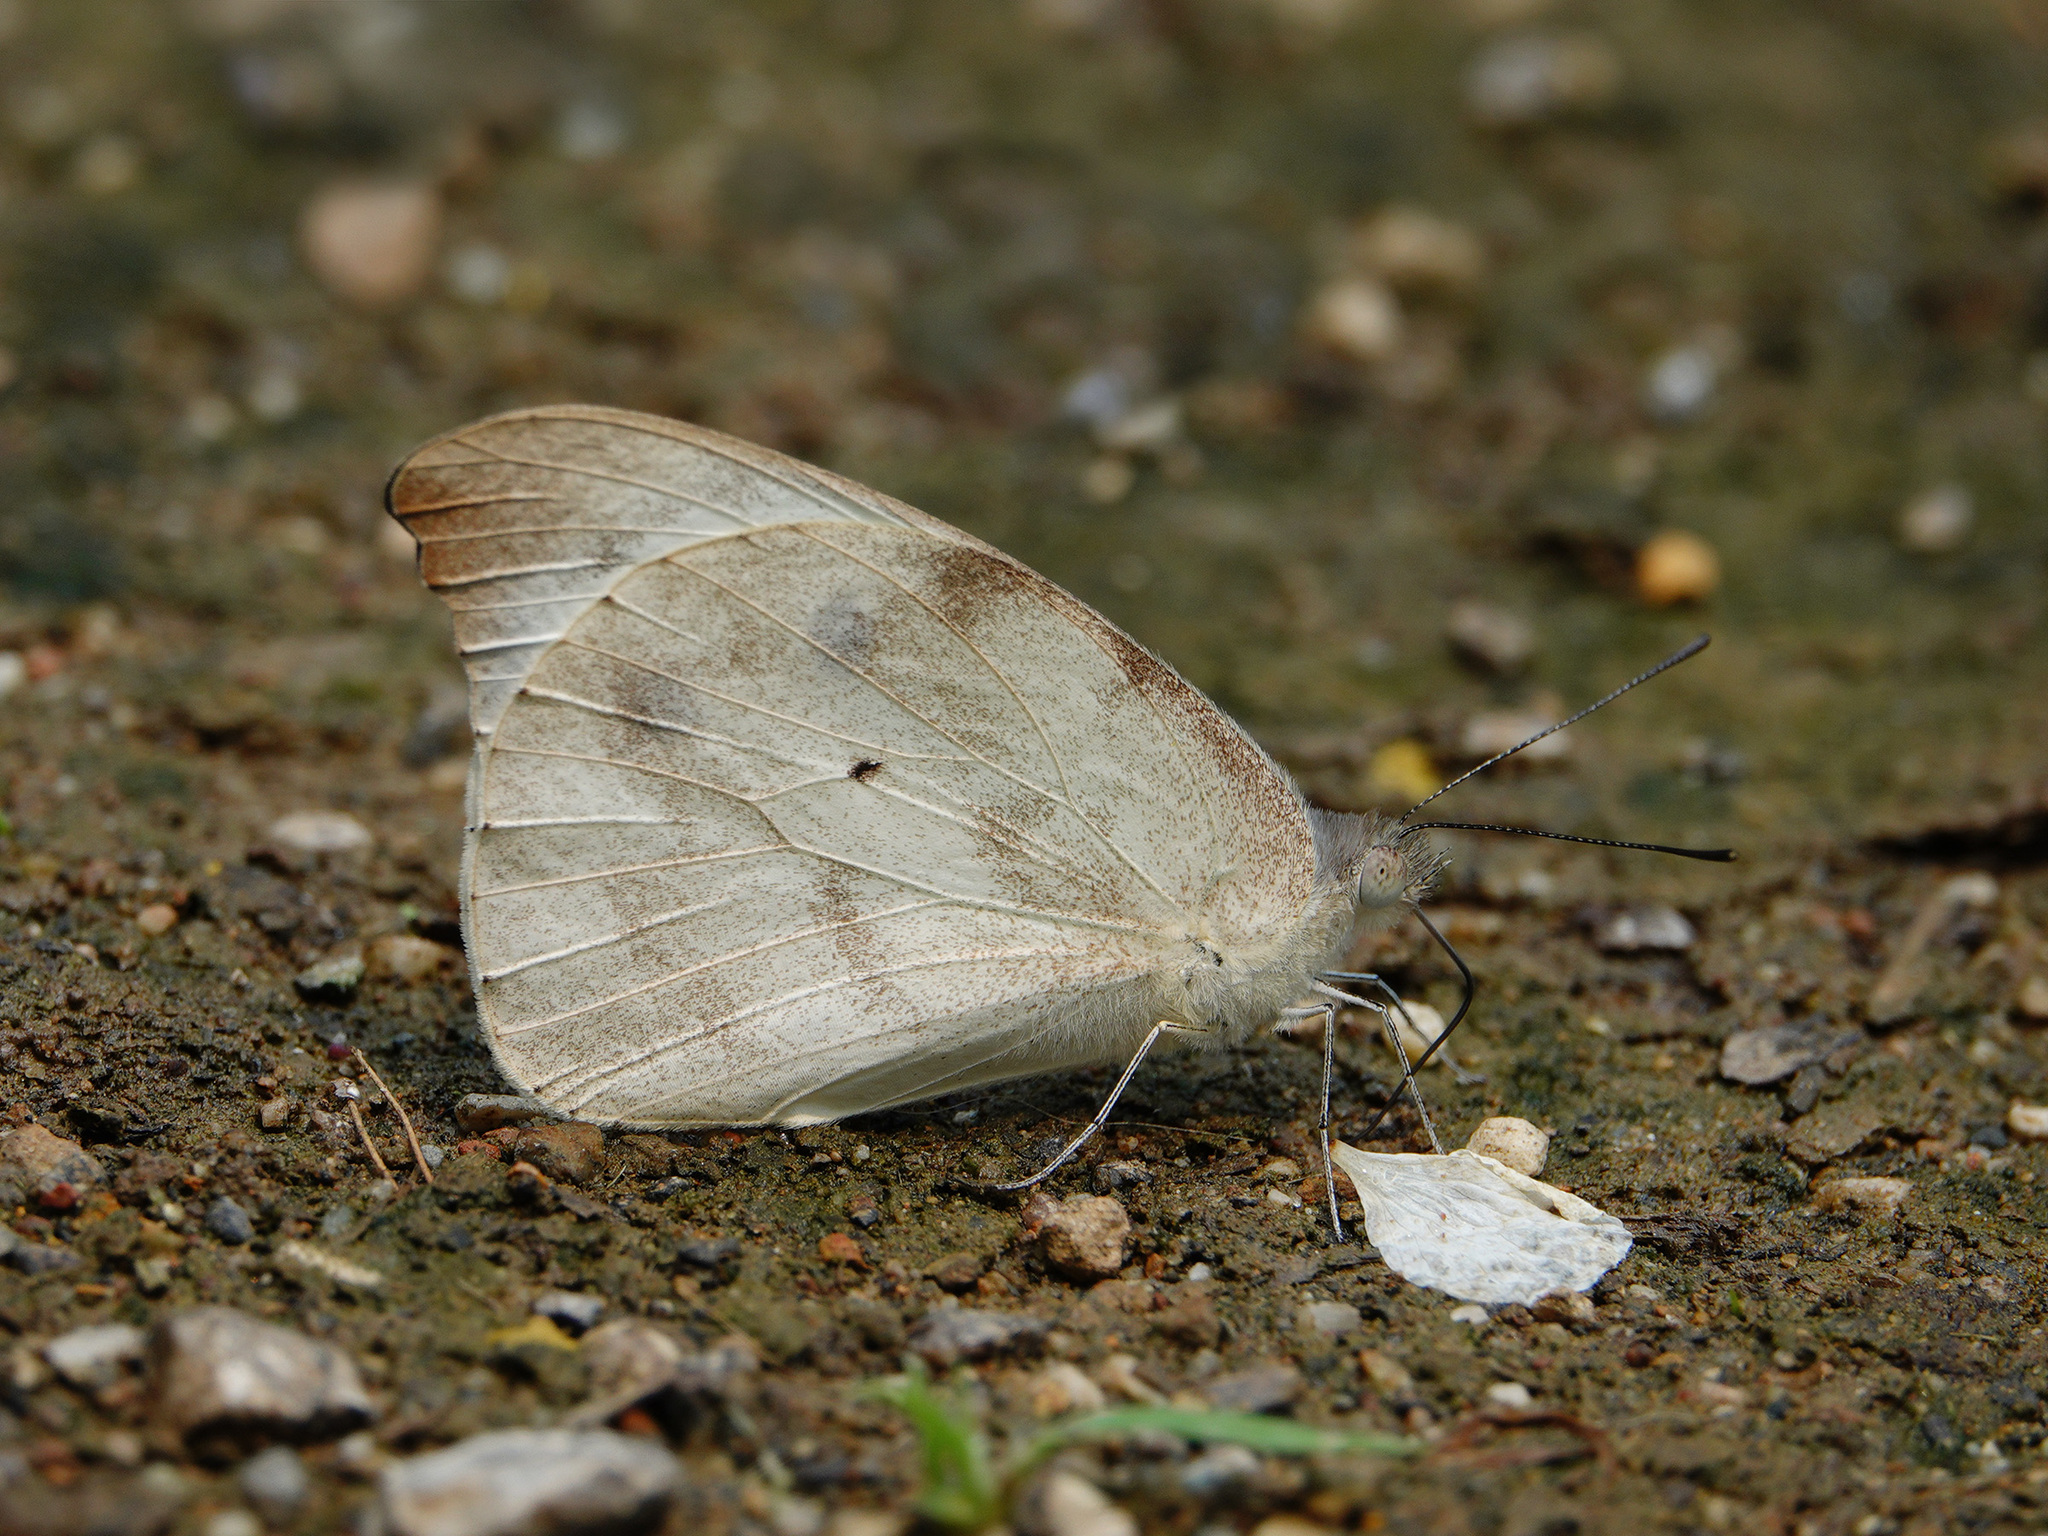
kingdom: Animalia
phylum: Arthropoda
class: Insecta
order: Lepidoptera
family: Pieridae
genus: Appias
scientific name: Appias lalage
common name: Spot puffin
